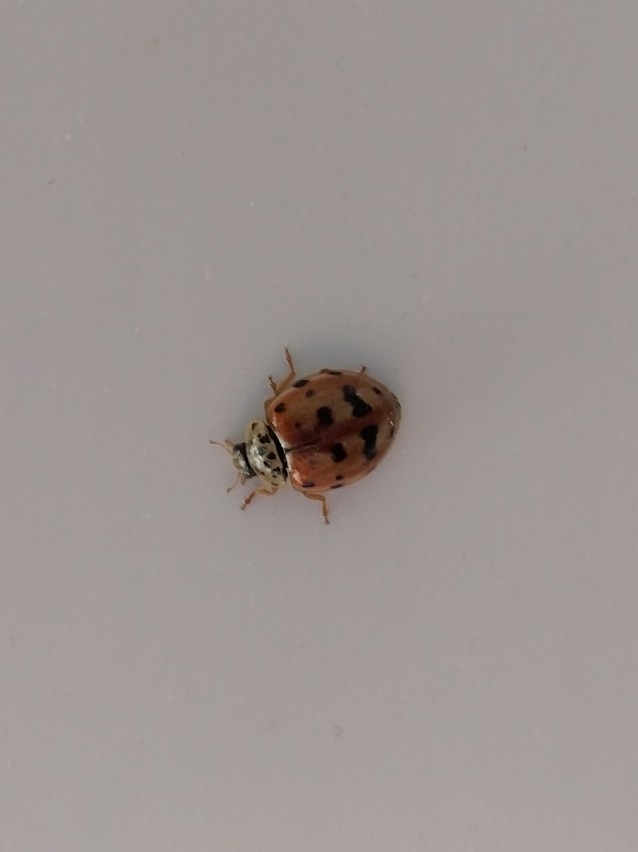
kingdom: Animalia
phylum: Arthropoda
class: Insecta
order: Coleoptera
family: Coccinellidae
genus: Harmonia
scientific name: Harmonia quadripunctata
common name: Cream-streaked ladybird
